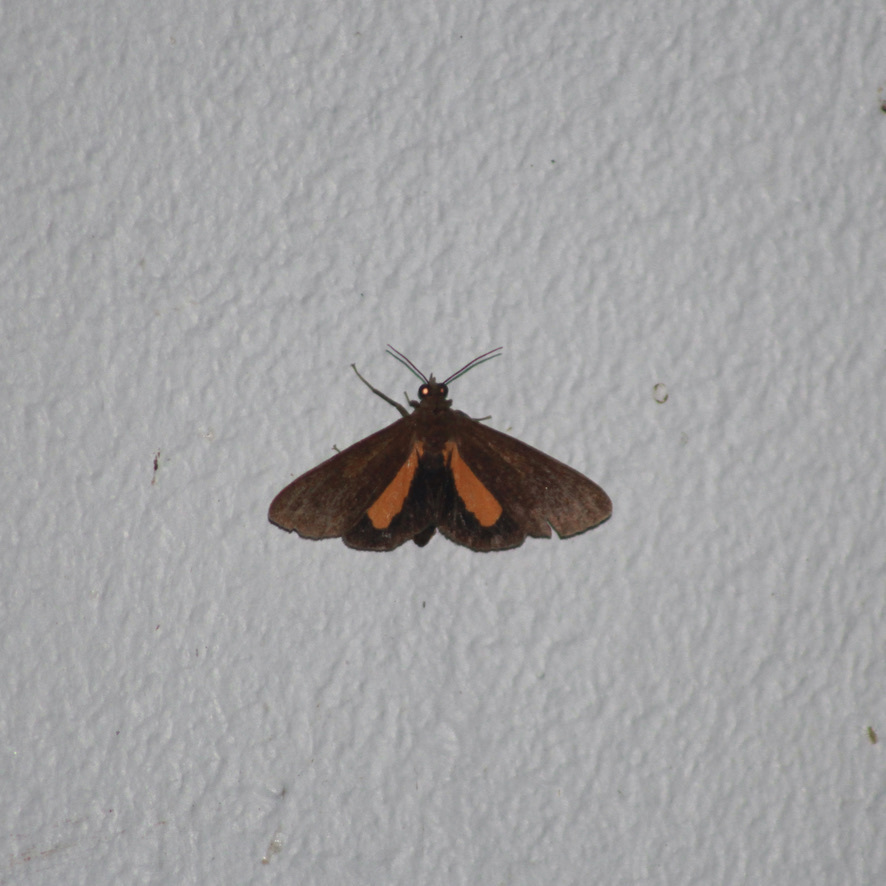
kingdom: Animalia
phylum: Arthropoda
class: Insecta
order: Lepidoptera
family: Erebidae
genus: Virbia
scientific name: Virbia medarda
